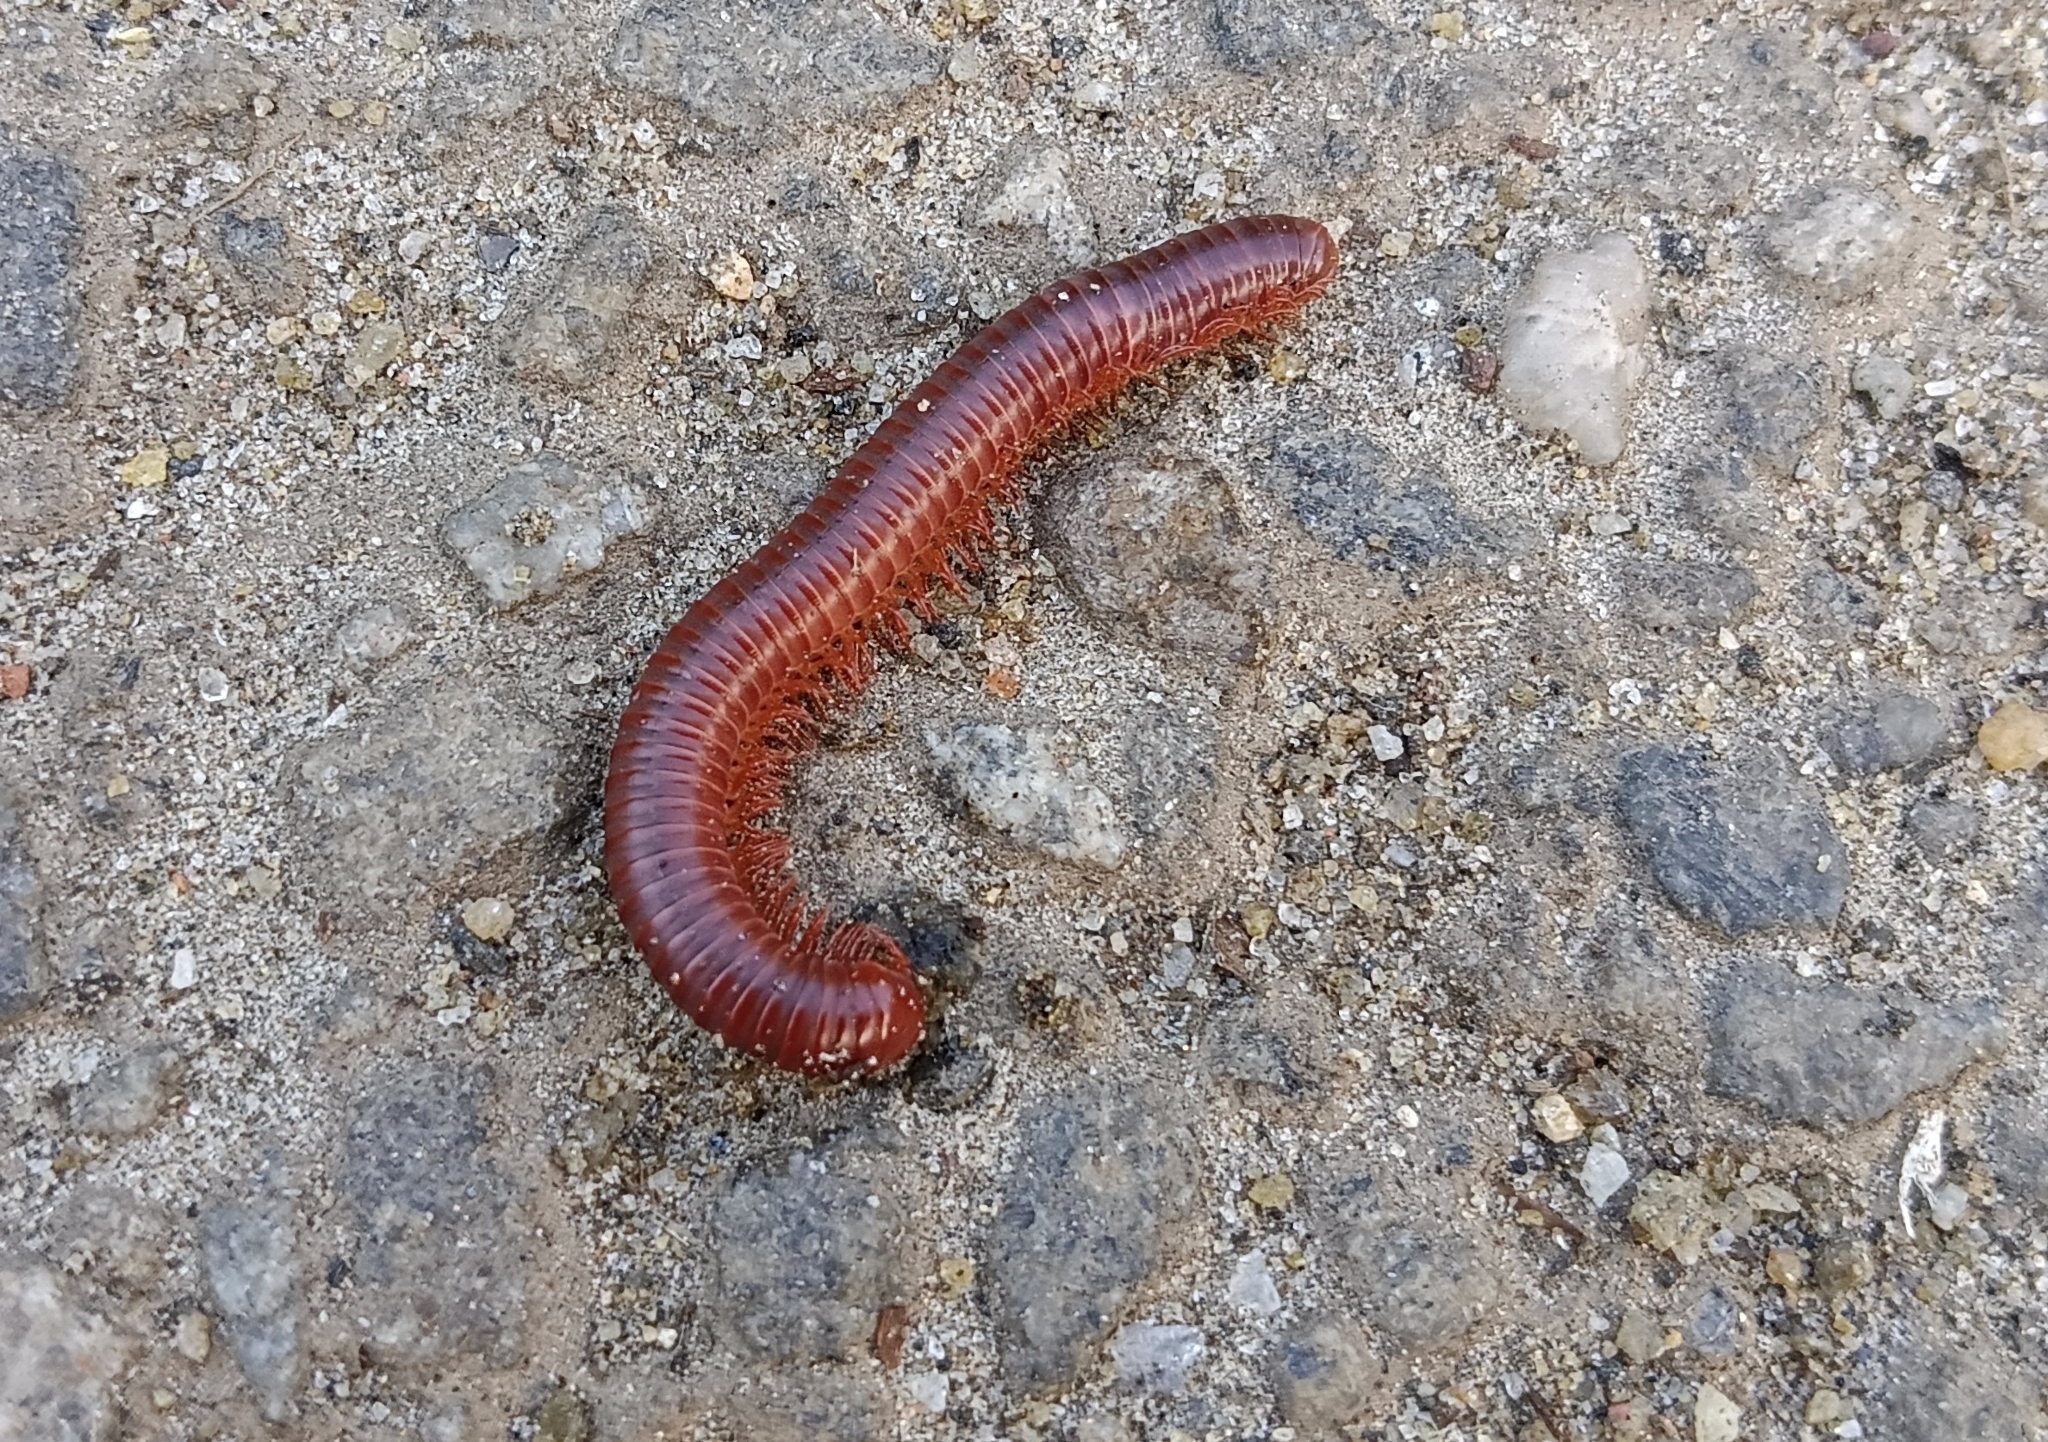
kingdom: Animalia
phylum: Arthropoda
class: Diplopoda
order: Spirobolida
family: Pachybolidae
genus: Trigoniulus
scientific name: Trigoniulus corallinus
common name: Millipede
